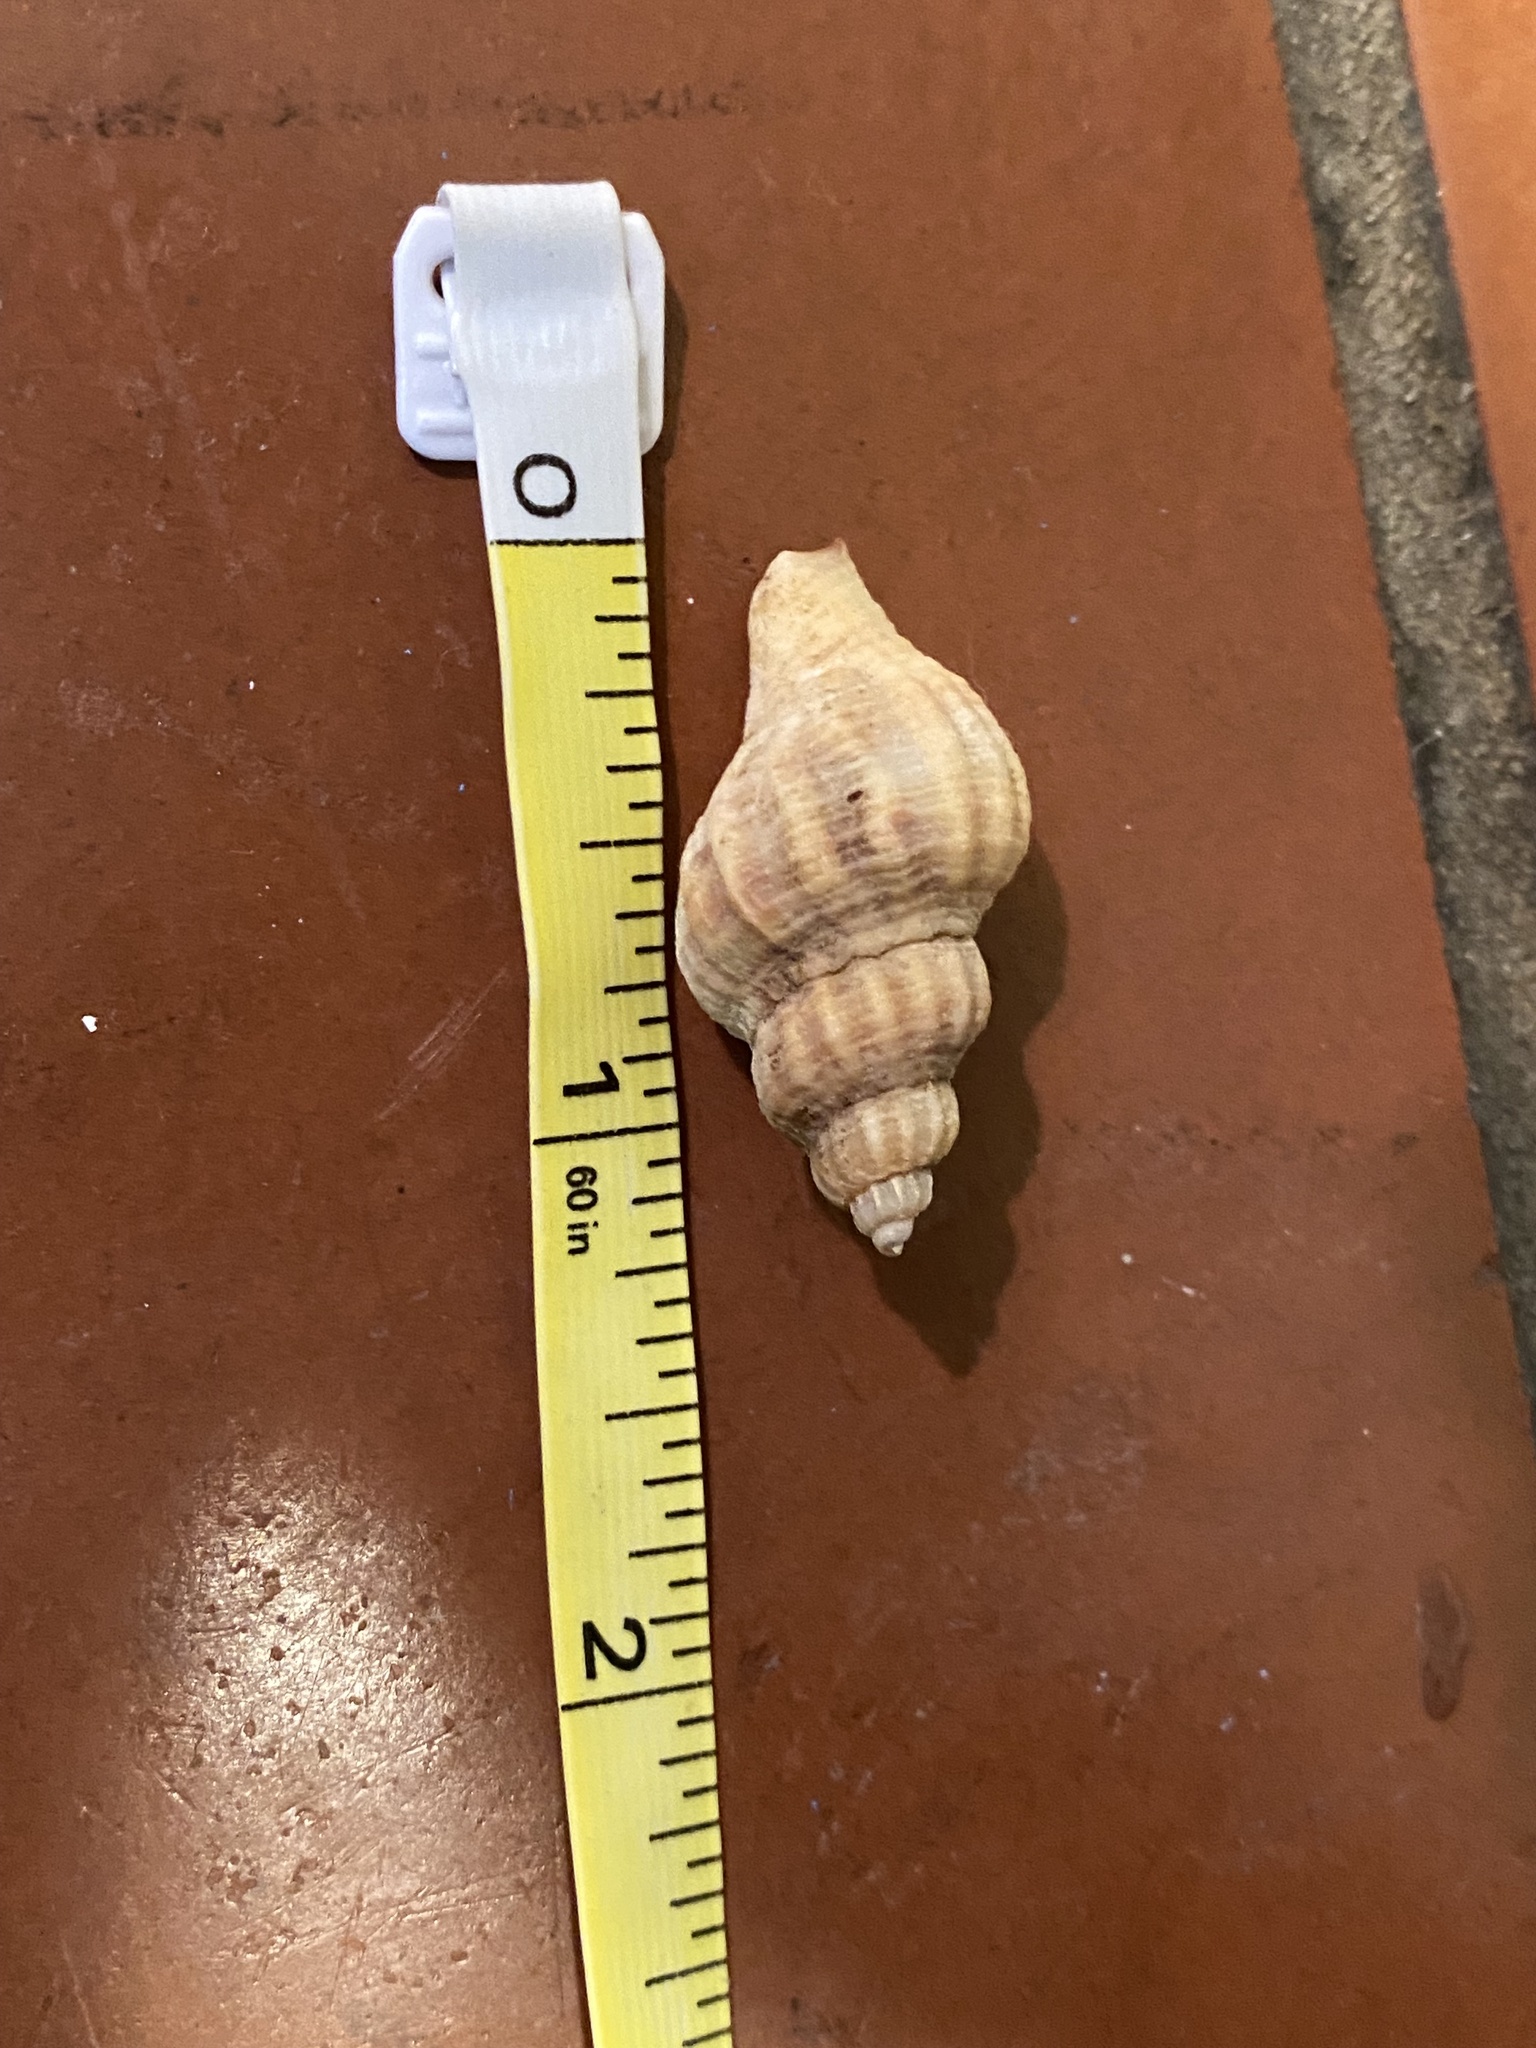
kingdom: Animalia
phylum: Mollusca
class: Gastropoda
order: Neogastropoda
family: Muricidae
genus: Urosalpinx
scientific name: Urosalpinx cinerea
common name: American sting winkle
